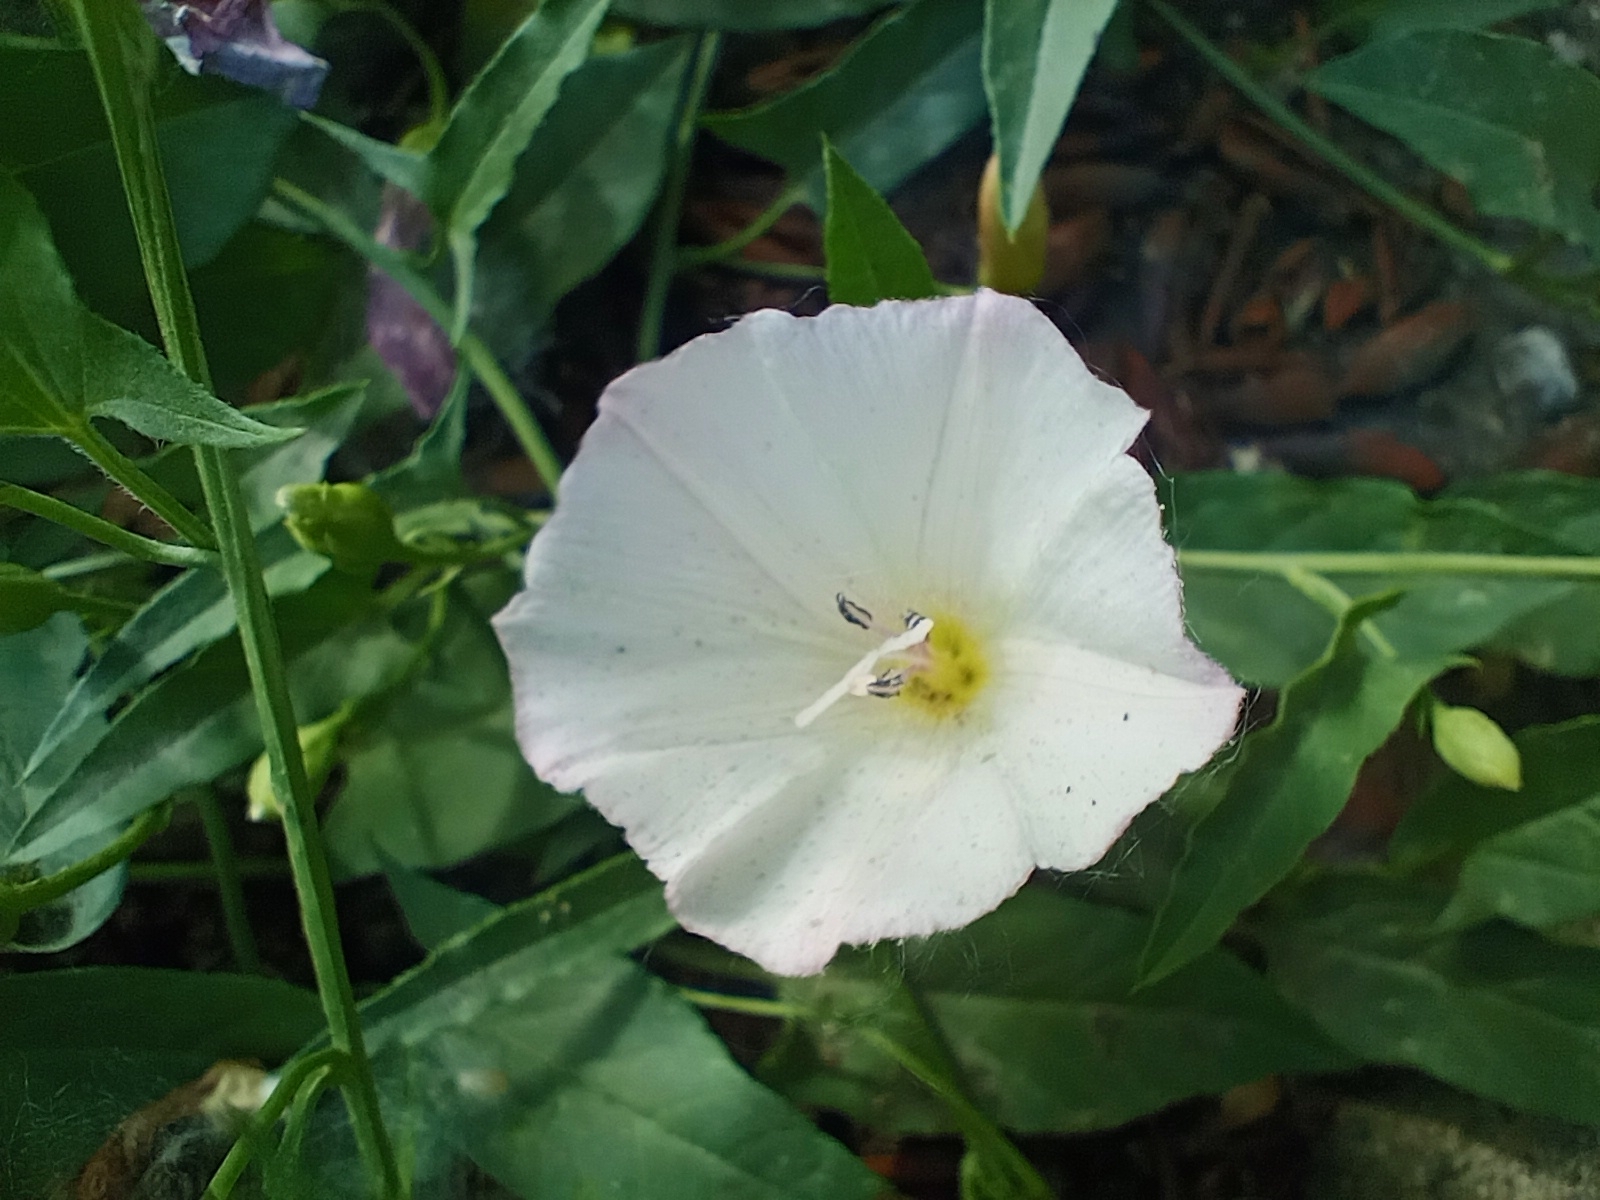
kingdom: Plantae
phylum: Tracheophyta
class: Magnoliopsida
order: Solanales
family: Convolvulaceae
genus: Convolvulus
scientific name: Convolvulus arvensis
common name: Field bindweed
